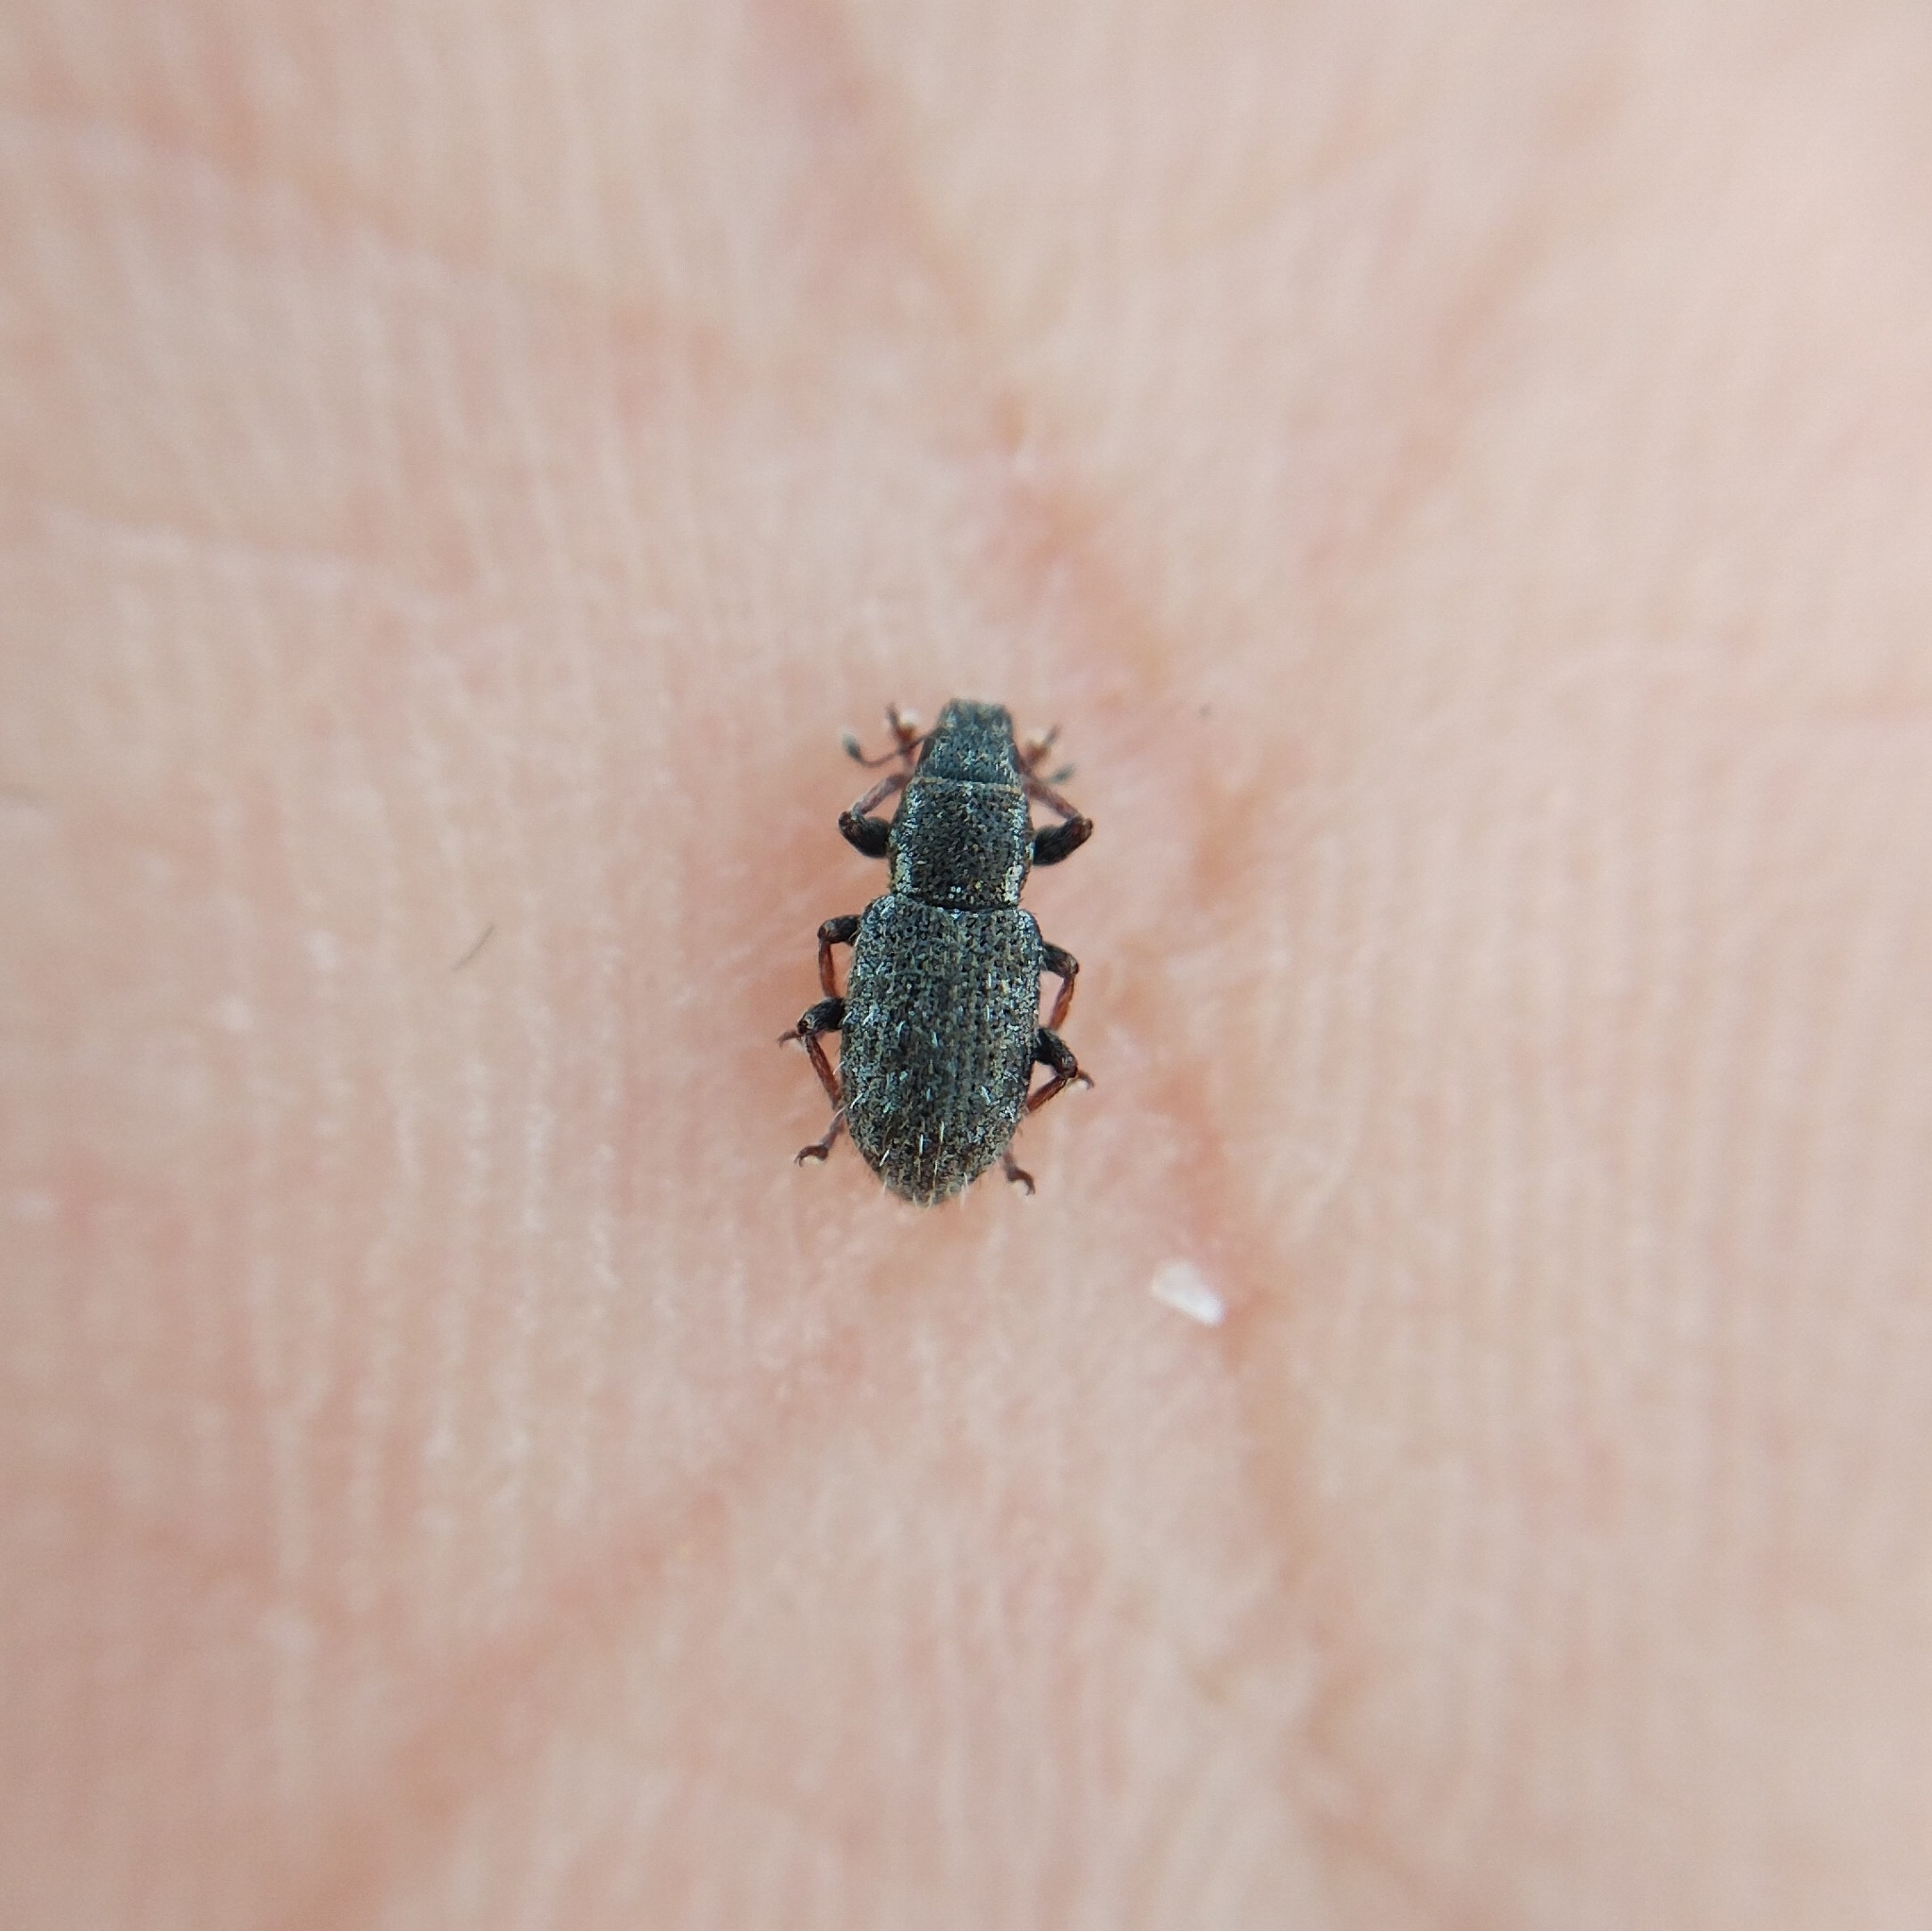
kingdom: Animalia
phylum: Arthropoda
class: Insecta
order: Coleoptera
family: Curculionidae
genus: Sitona
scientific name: Sitona hispidulus
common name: Clover weevil
